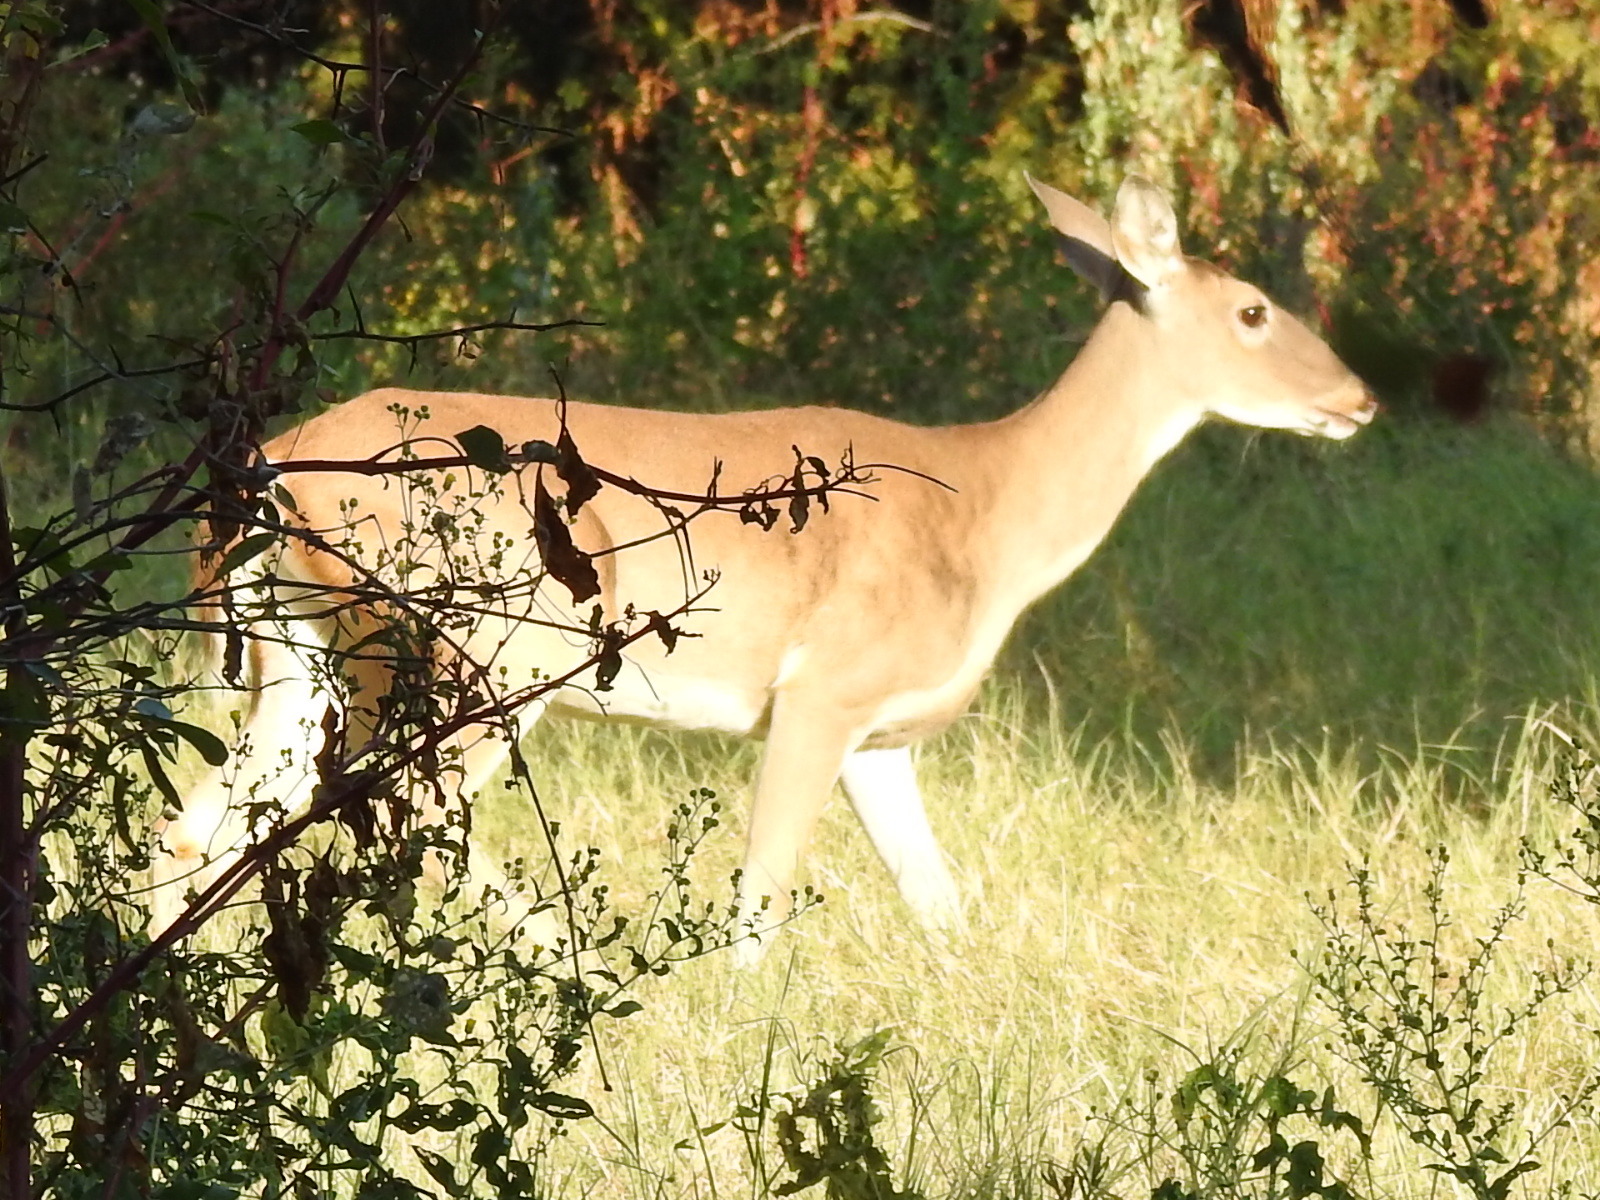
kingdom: Animalia
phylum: Chordata
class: Mammalia
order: Artiodactyla
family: Cervidae
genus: Odocoileus
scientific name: Odocoileus virginianus
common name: White-tailed deer
